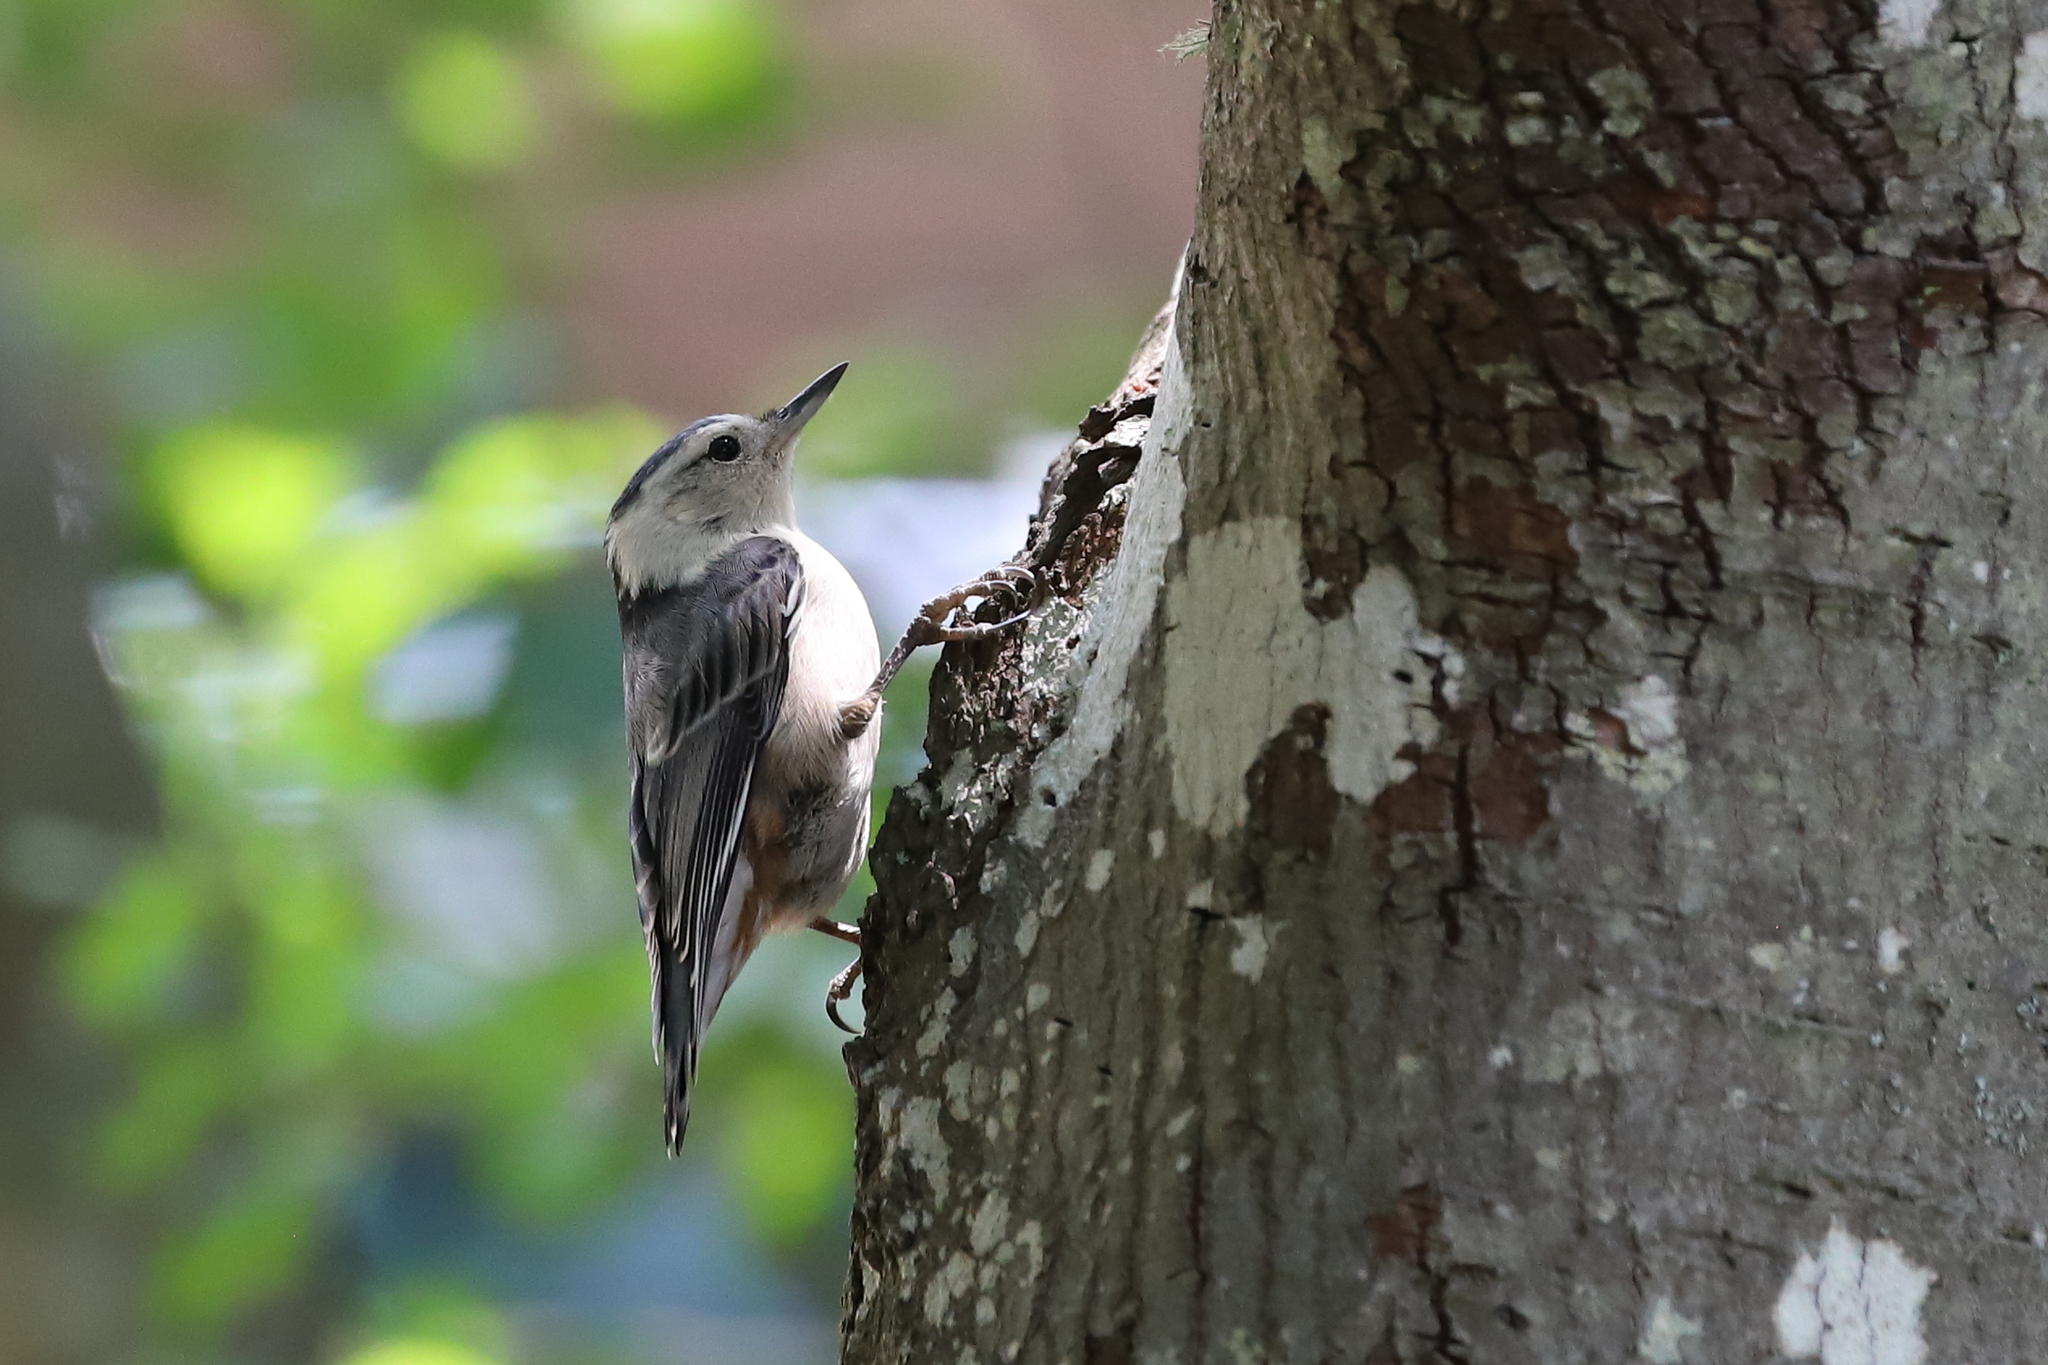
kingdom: Animalia
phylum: Chordata
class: Aves
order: Passeriformes
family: Sittidae
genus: Sitta
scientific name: Sitta carolinensis
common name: White-breasted nuthatch
